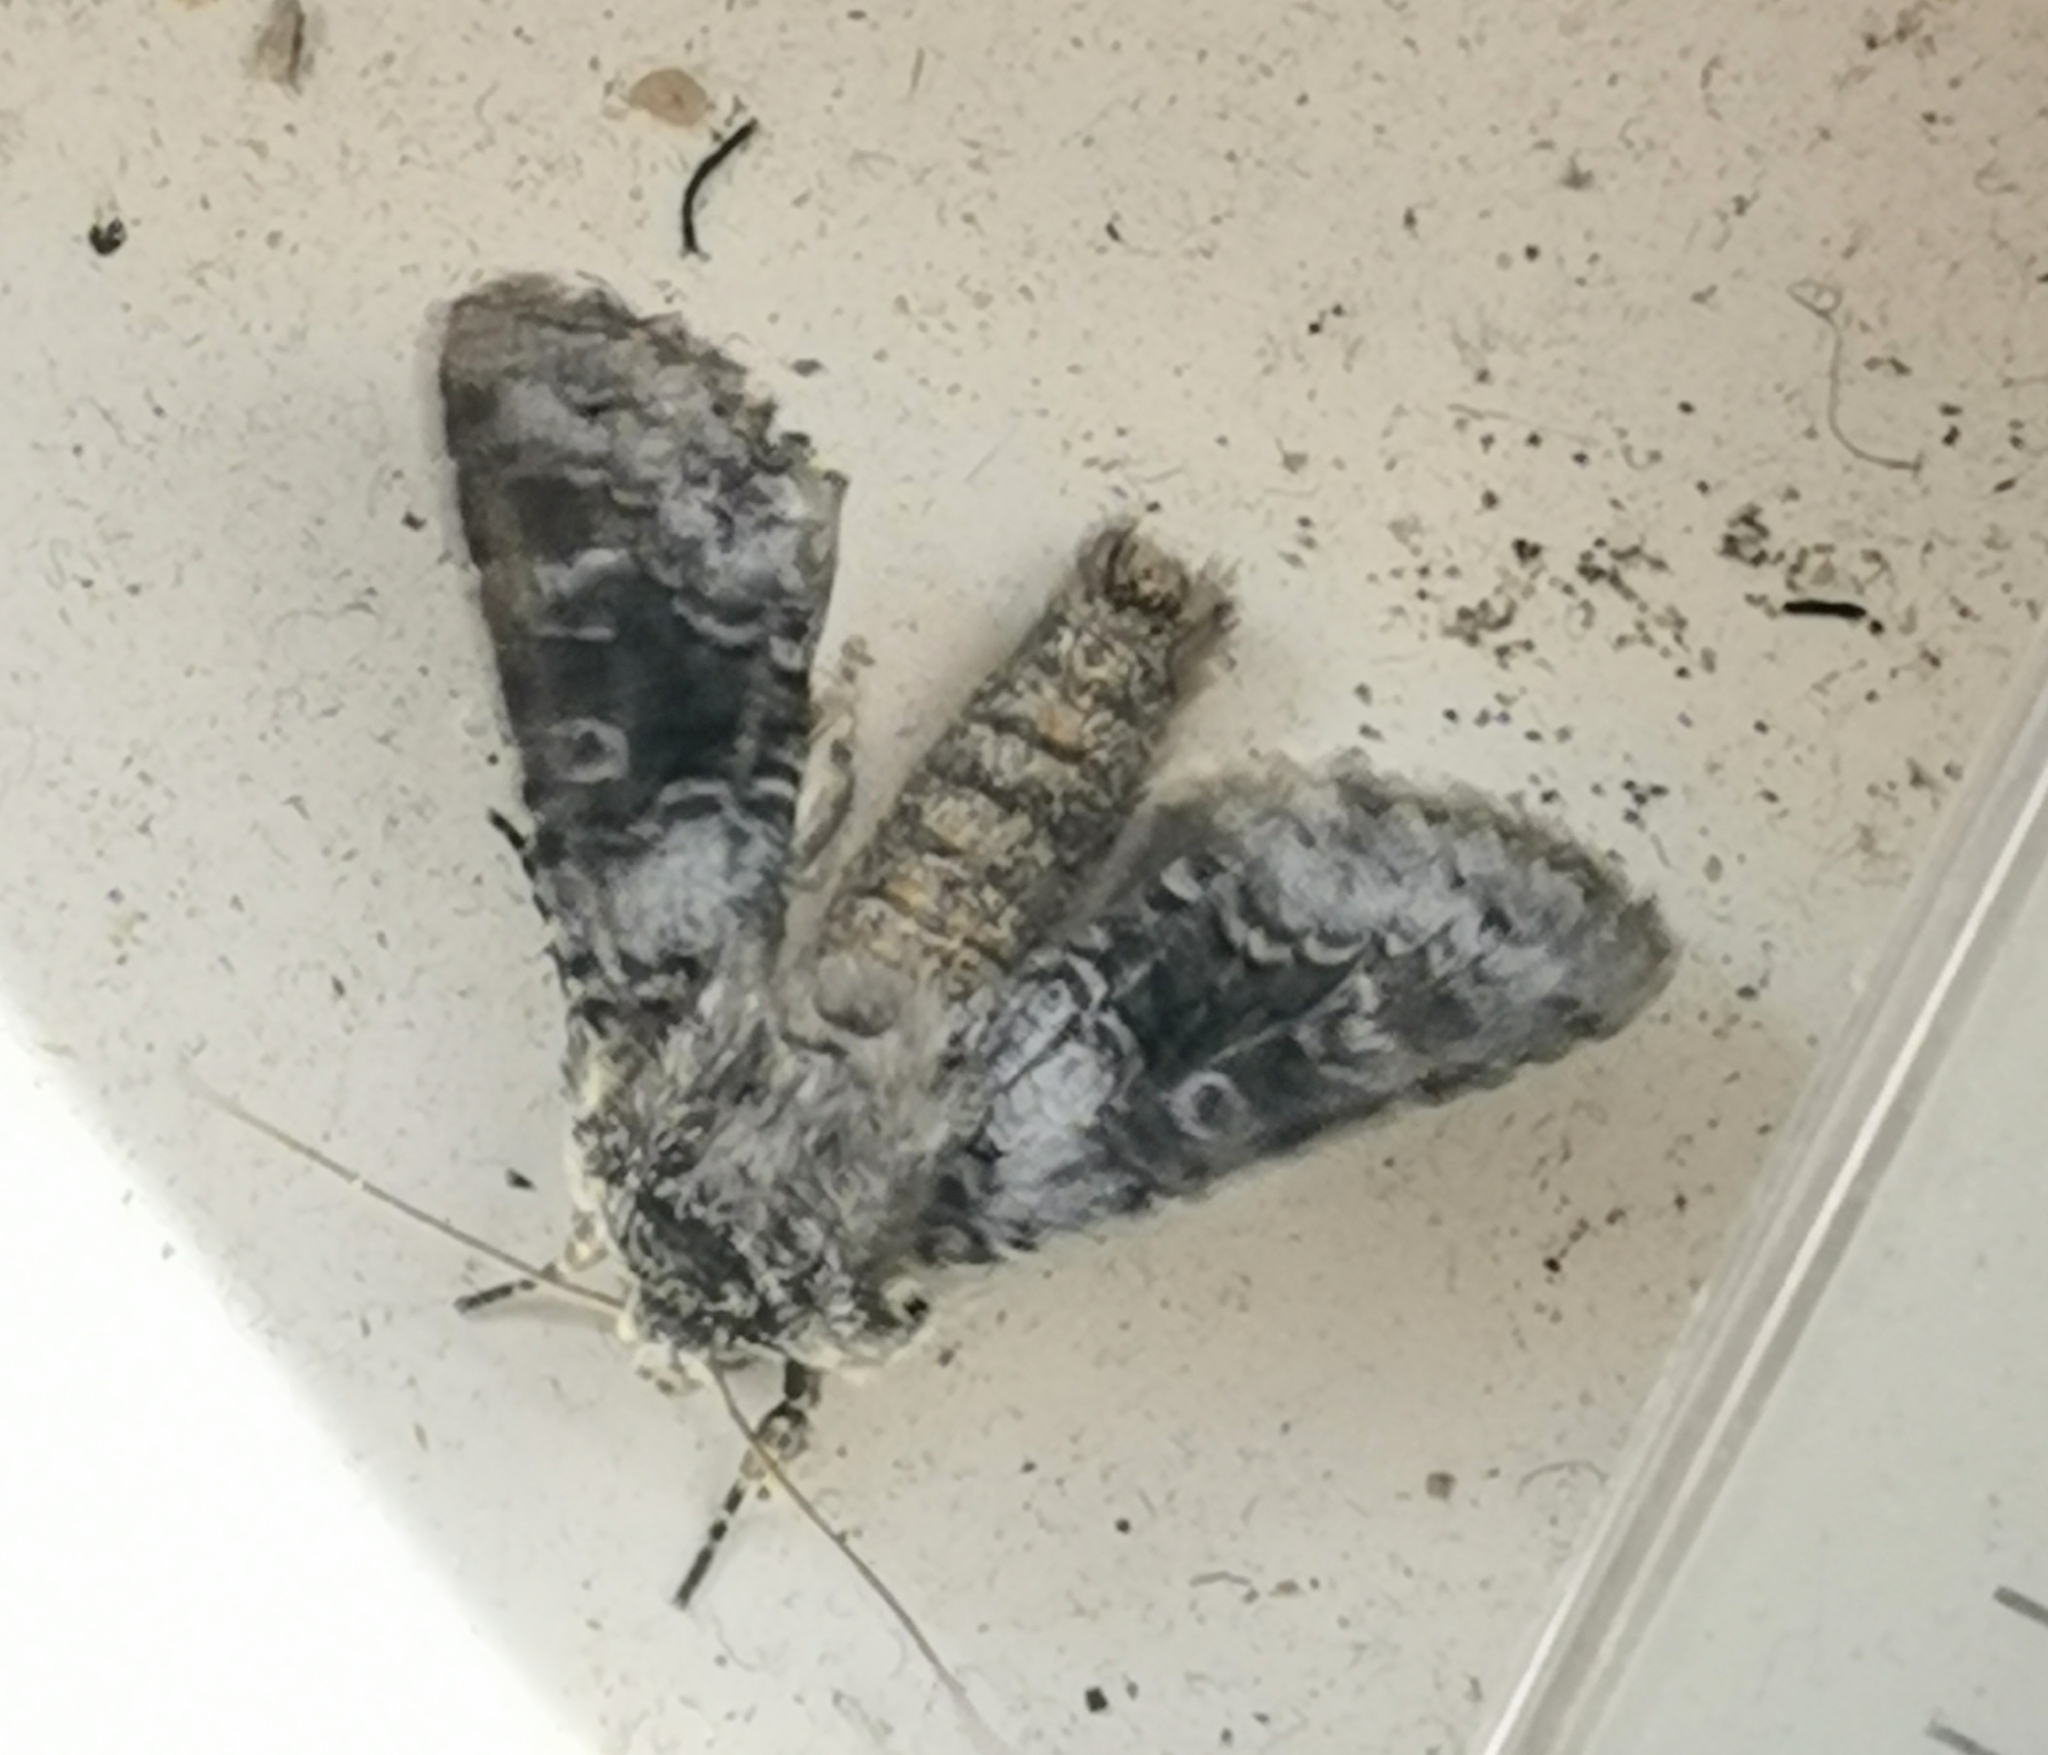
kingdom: Animalia
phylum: Arthropoda
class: Insecta
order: Lepidoptera
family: Noctuidae
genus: Hecatera
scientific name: Hecatera bicolorata
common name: Broad-barred white
